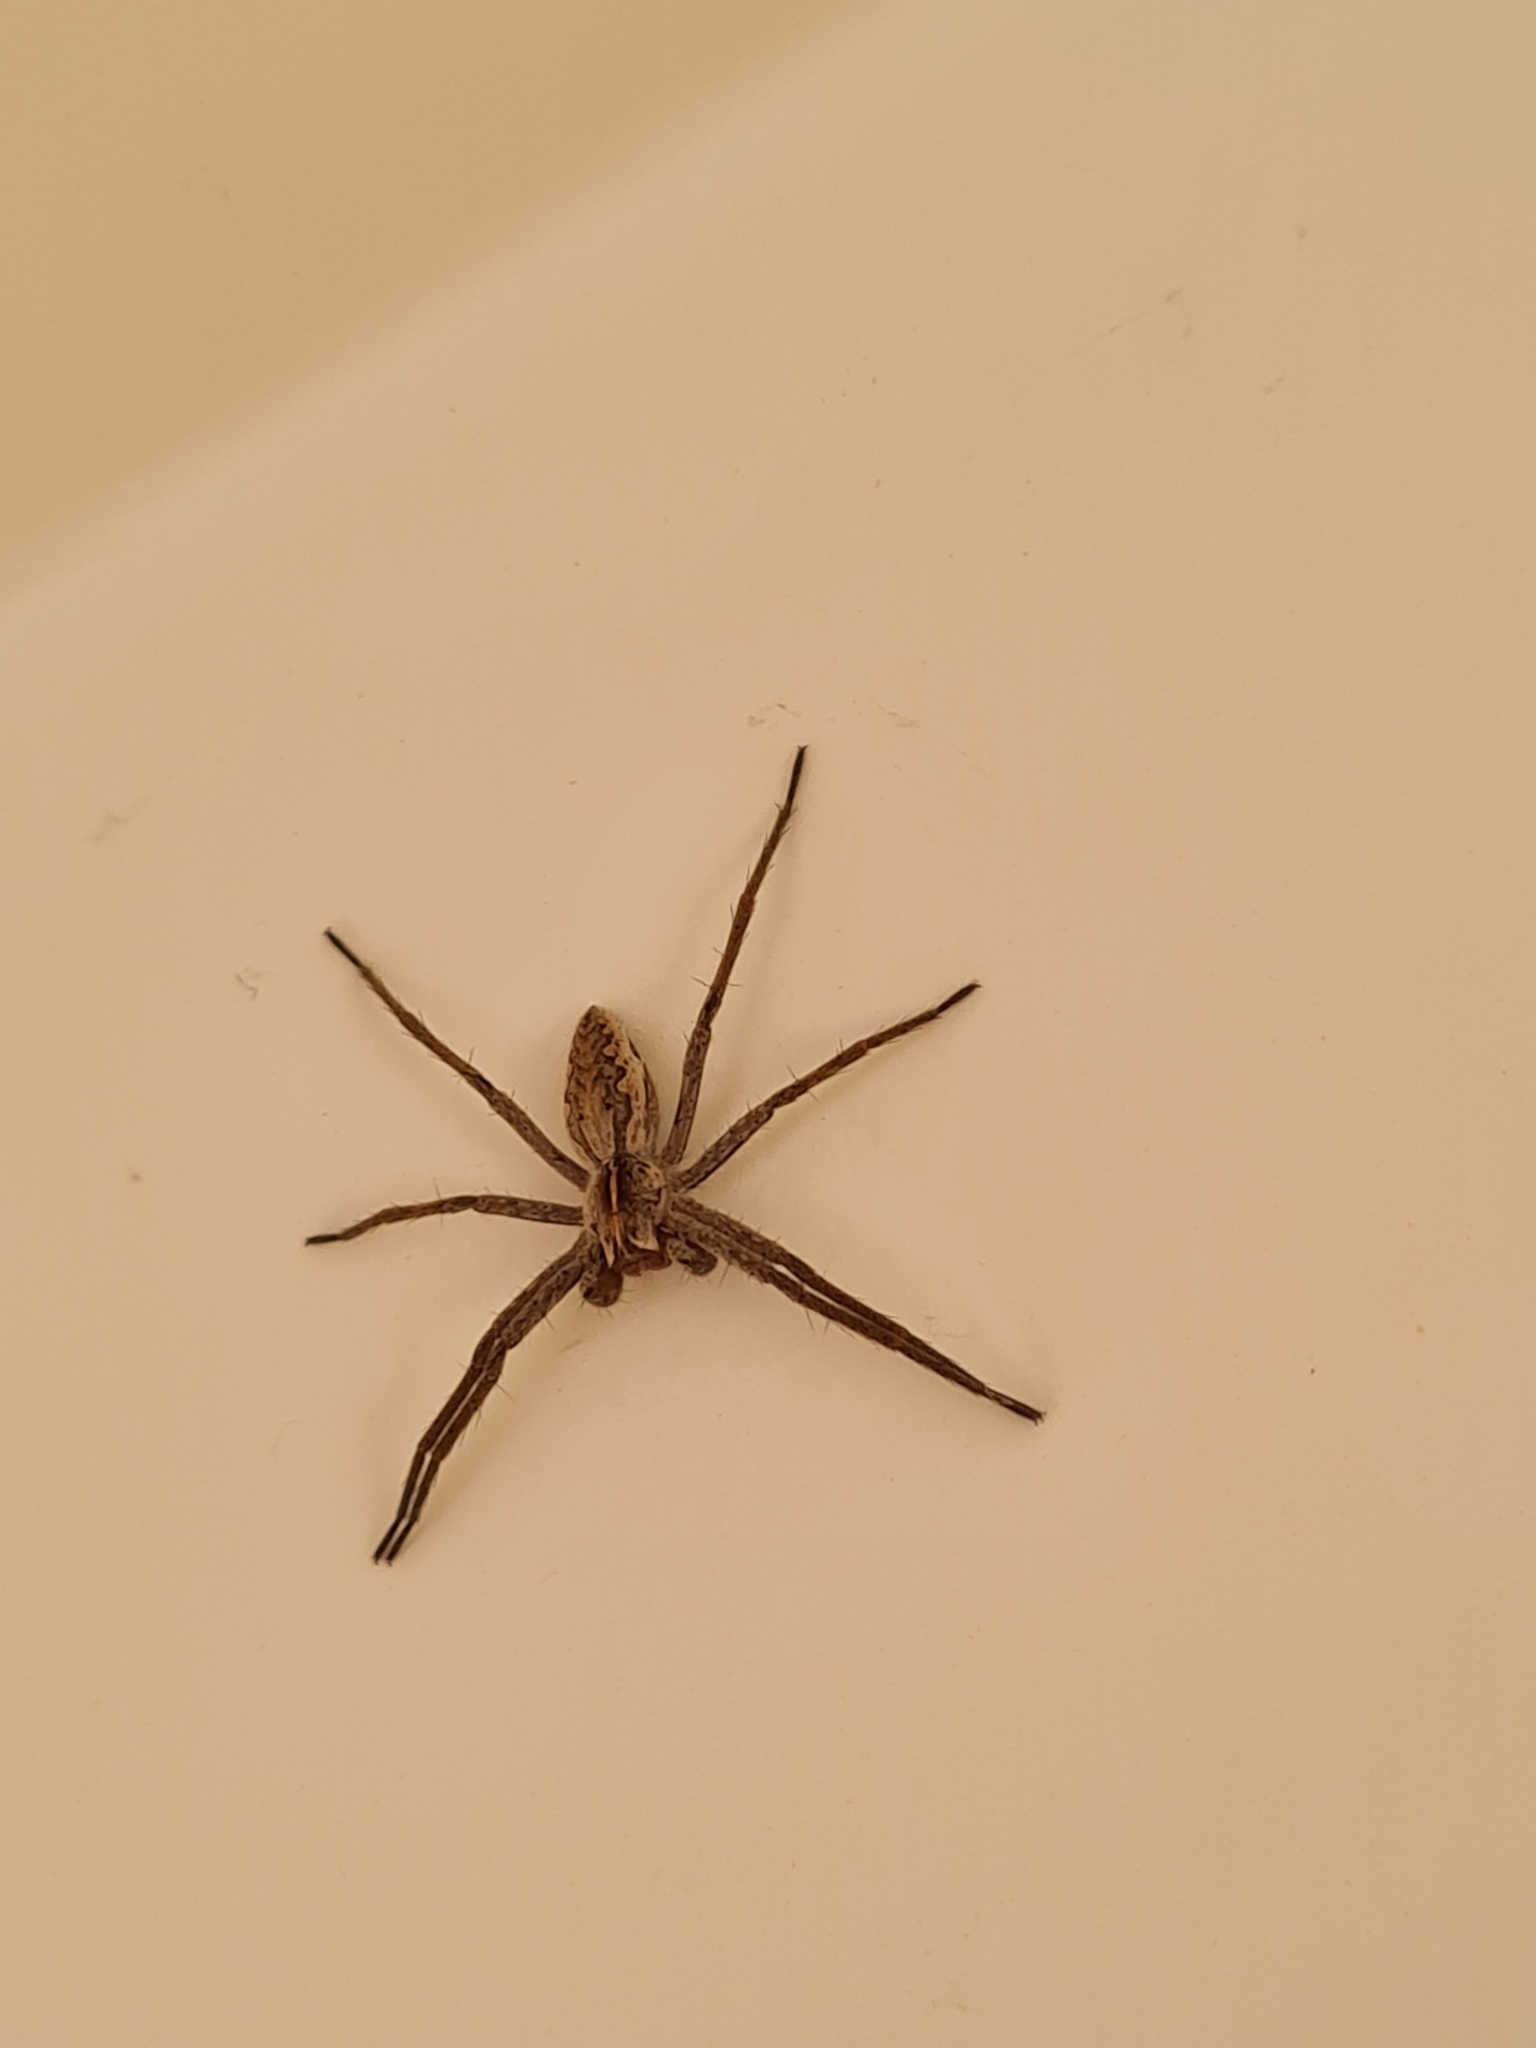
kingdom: Animalia
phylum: Arthropoda
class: Arachnida
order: Araneae
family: Pisauridae
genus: Pisaura
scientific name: Pisaura mirabilis
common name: Tent spider
